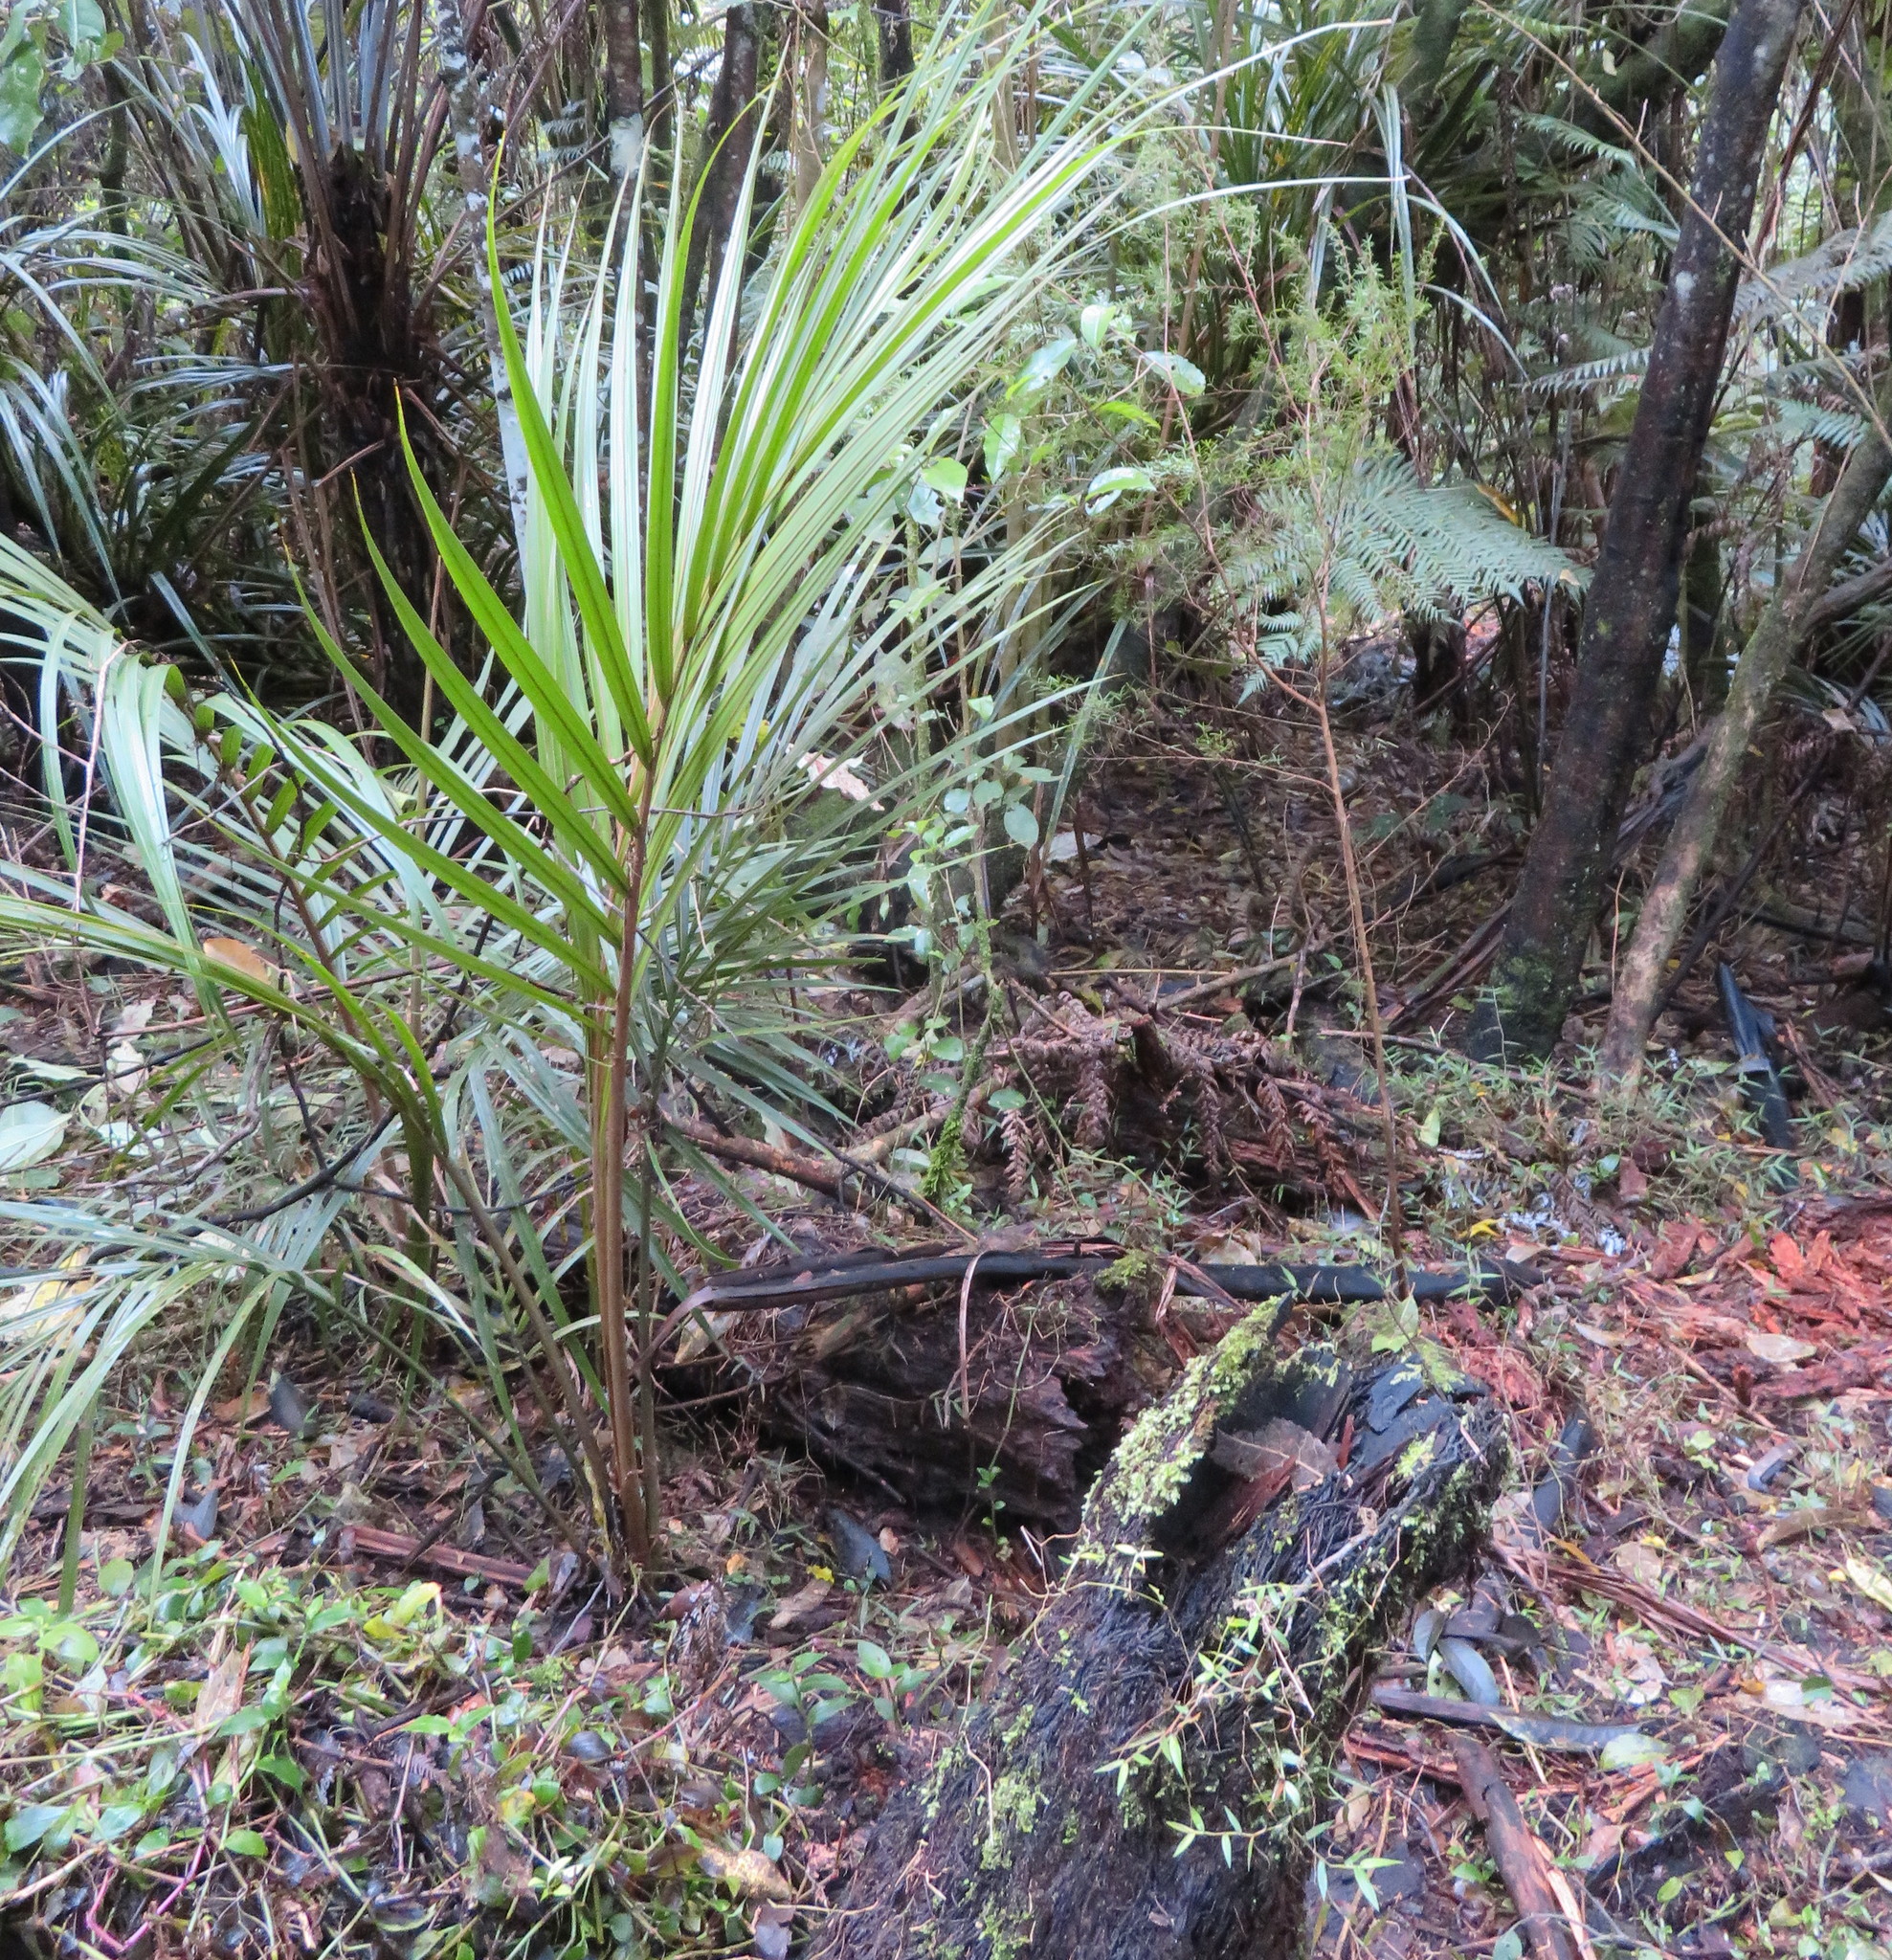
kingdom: Plantae
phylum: Tracheophyta
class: Liliopsida
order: Arecales
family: Arecaceae
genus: Rhopalostylis
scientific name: Rhopalostylis sapida
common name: Feather-duster palm
